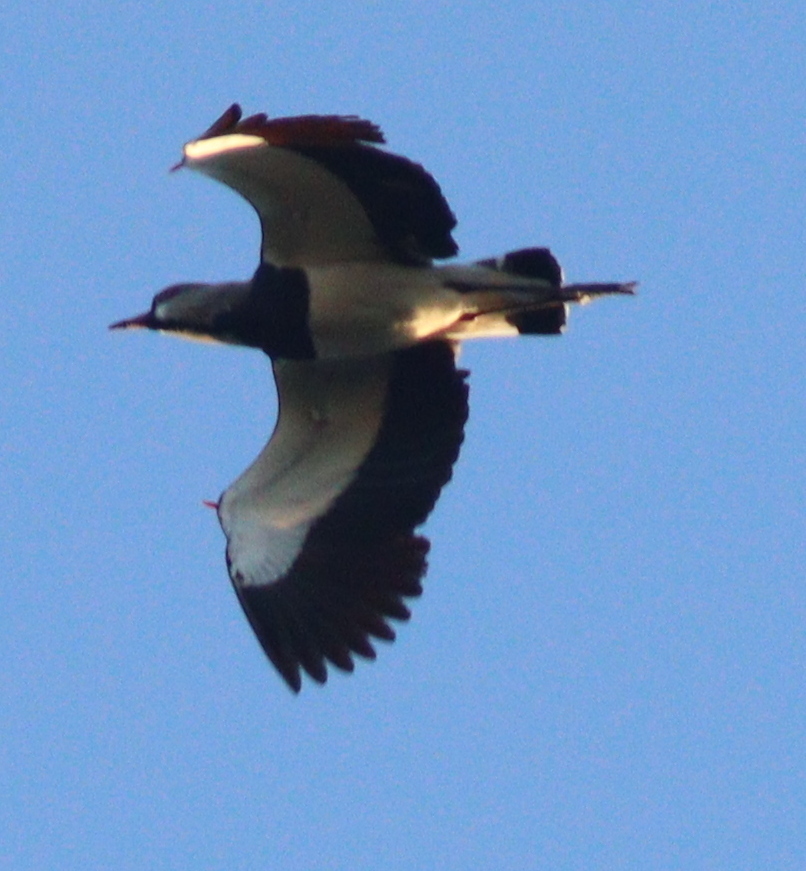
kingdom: Animalia
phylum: Chordata
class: Aves
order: Charadriiformes
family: Charadriidae
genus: Vanellus
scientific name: Vanellus chilensis
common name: Southern lapwing
